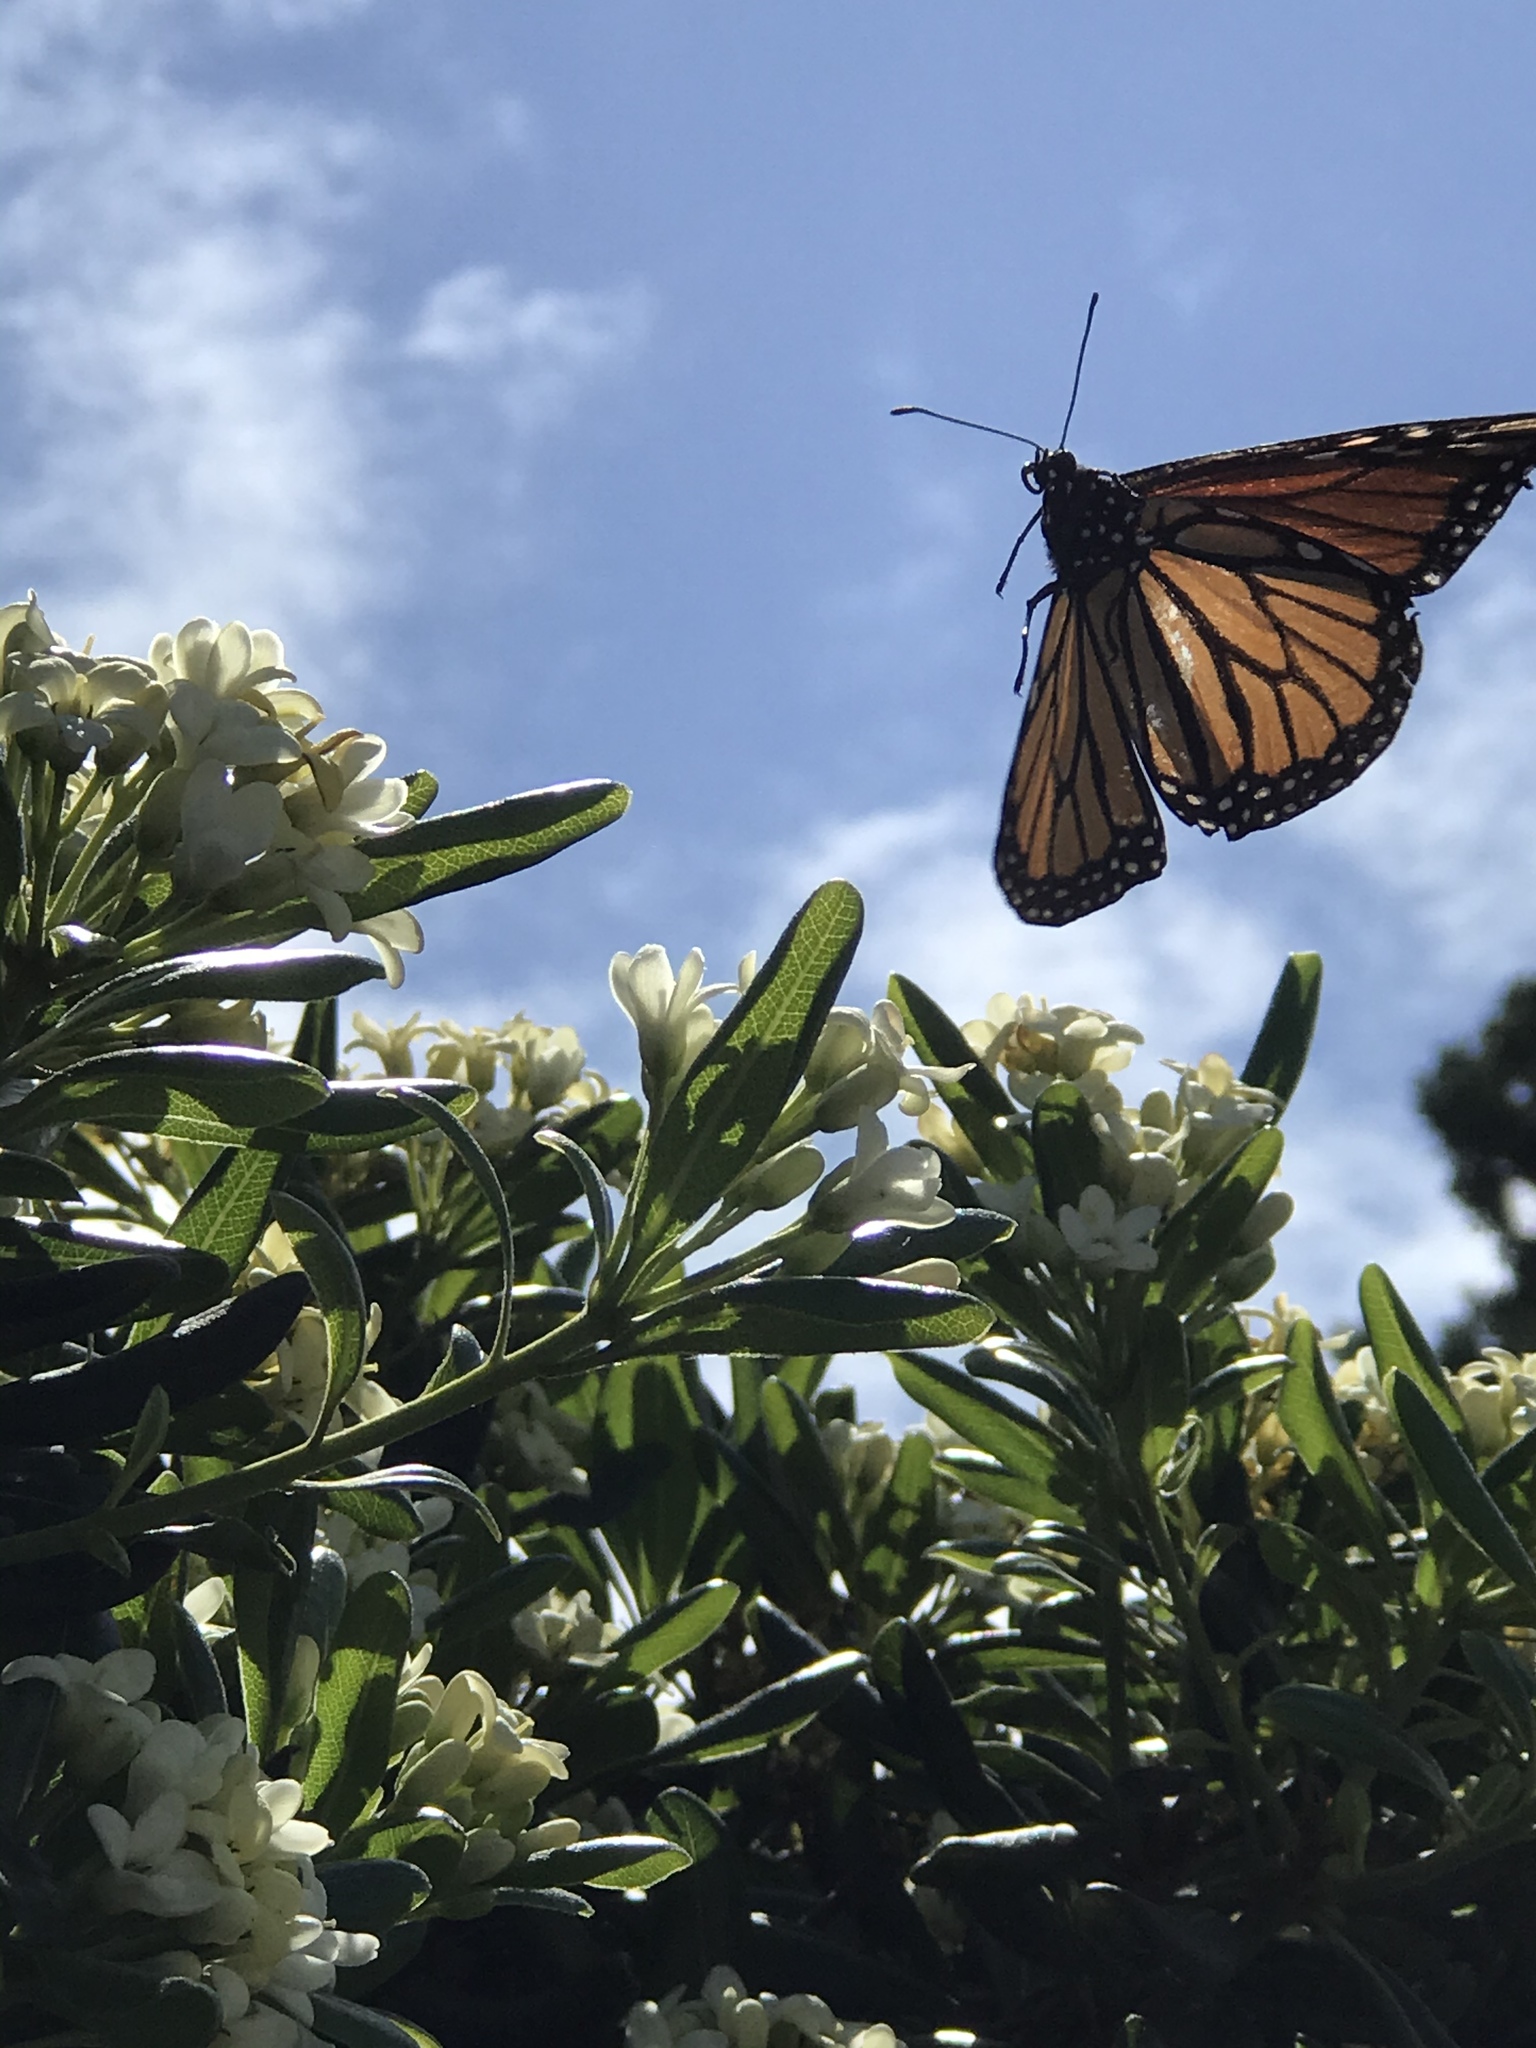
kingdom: Animalia
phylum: Arthropoda
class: Insecta
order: Lepidoptera
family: Nymphalidae
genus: Danaus
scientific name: Danaus plexippus
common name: Monarch
